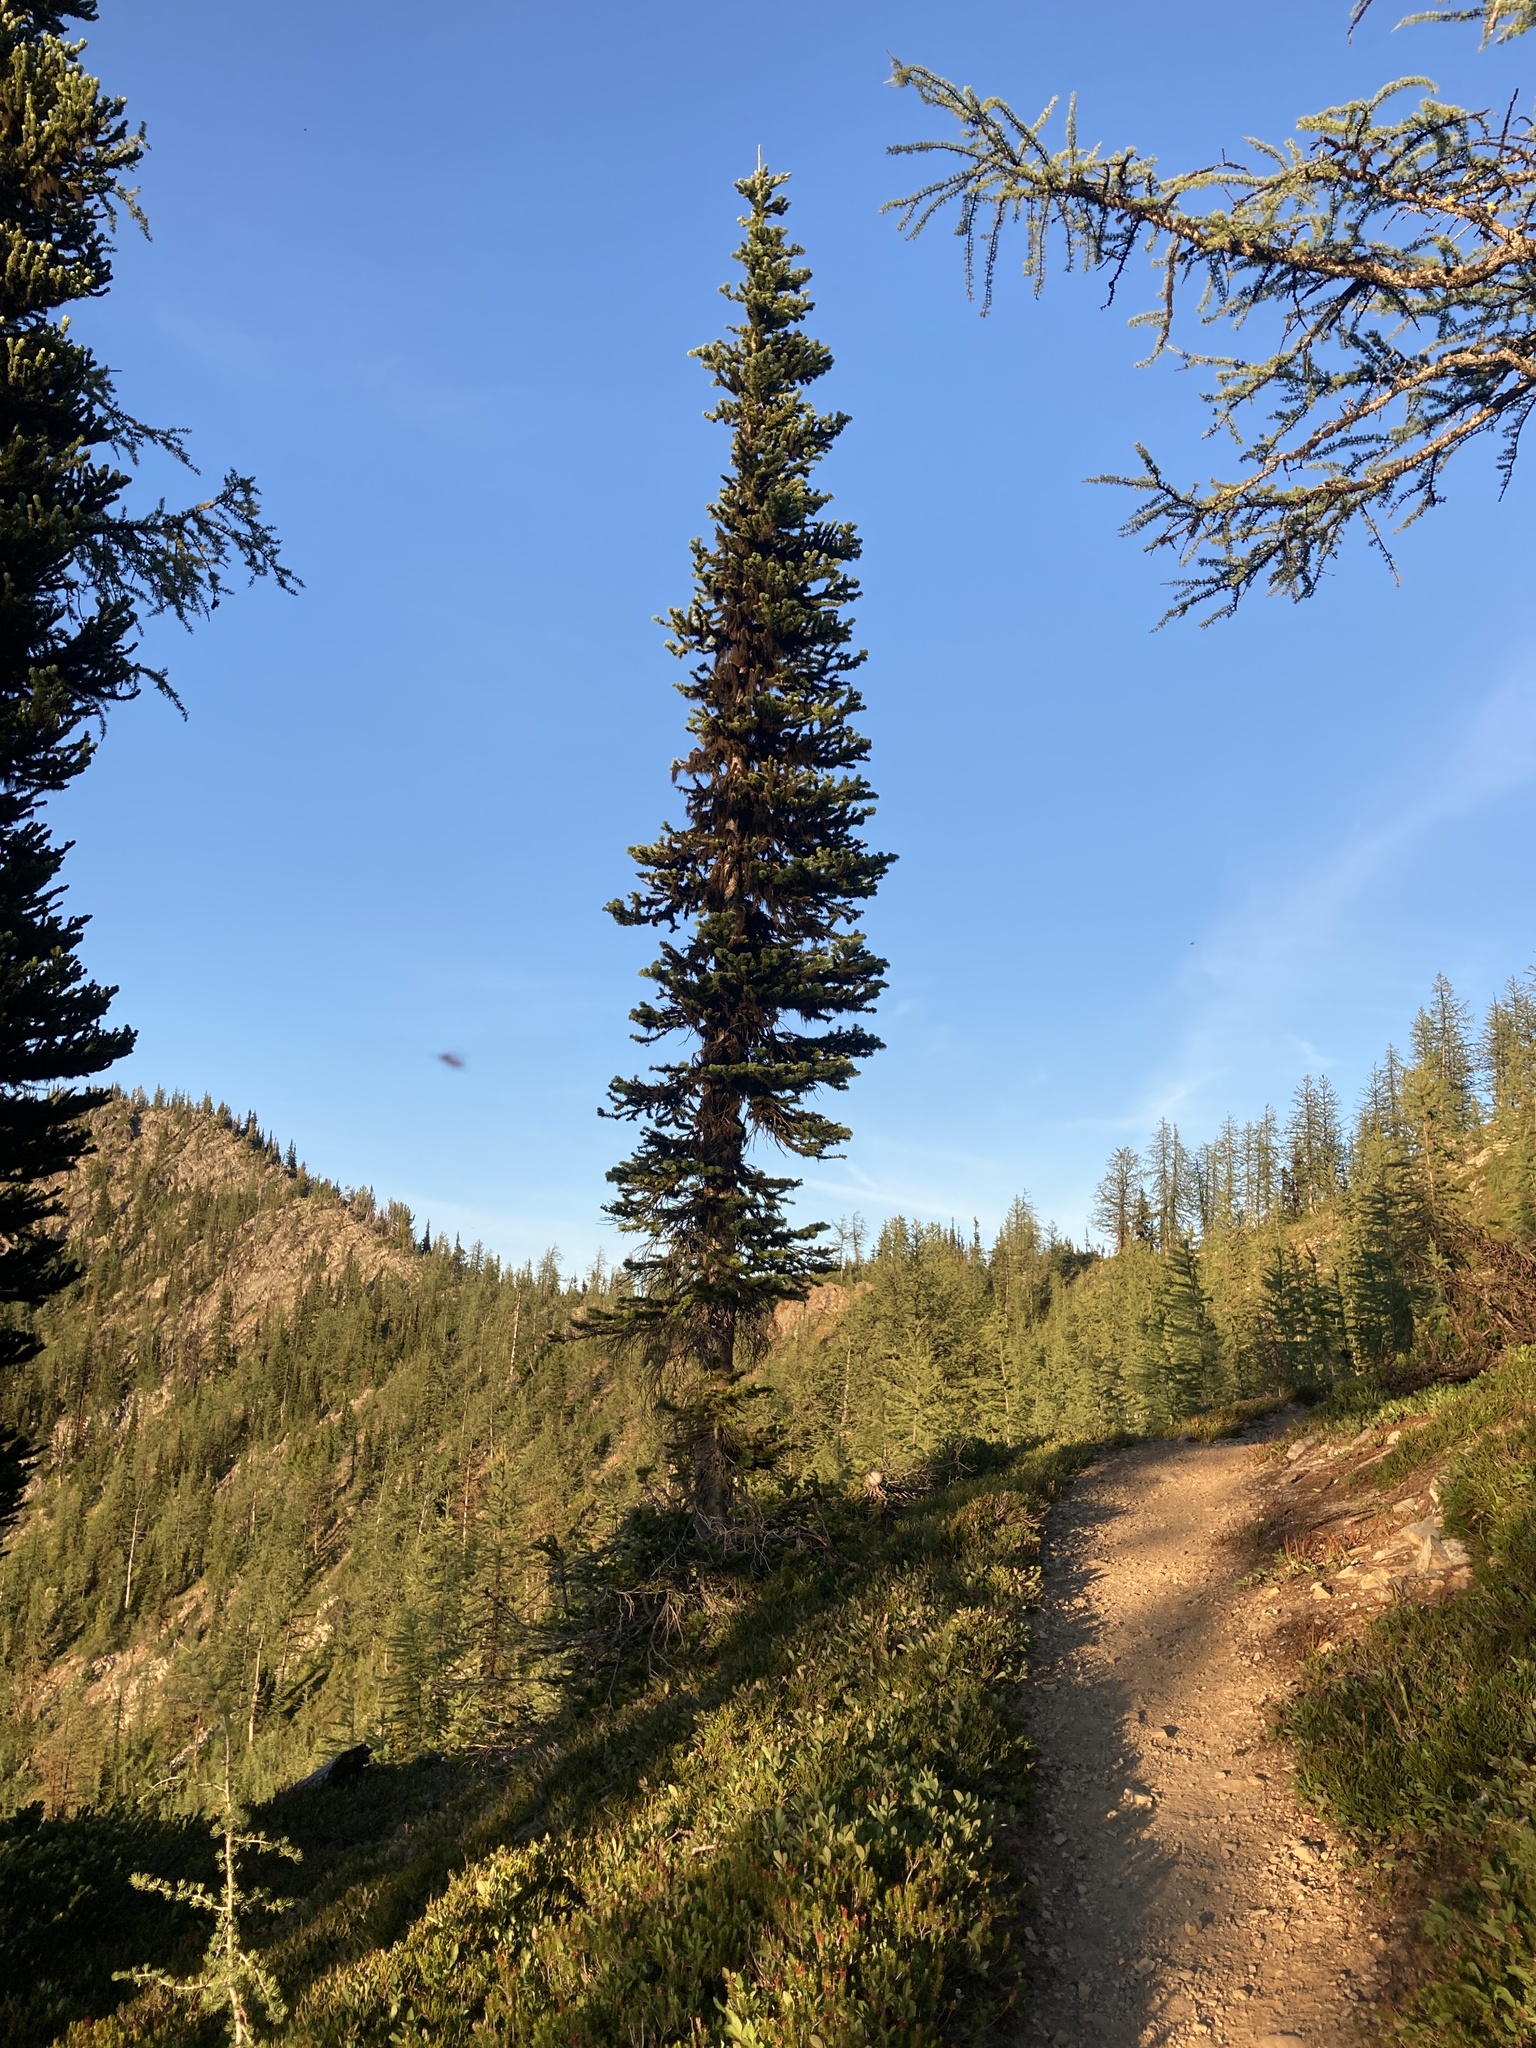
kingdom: Plantae
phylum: Tracheophyta
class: Pinopsida
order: Pinales
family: Pinaceae
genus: Abies
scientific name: Abies lasiocarpa
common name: Subalpine fir
